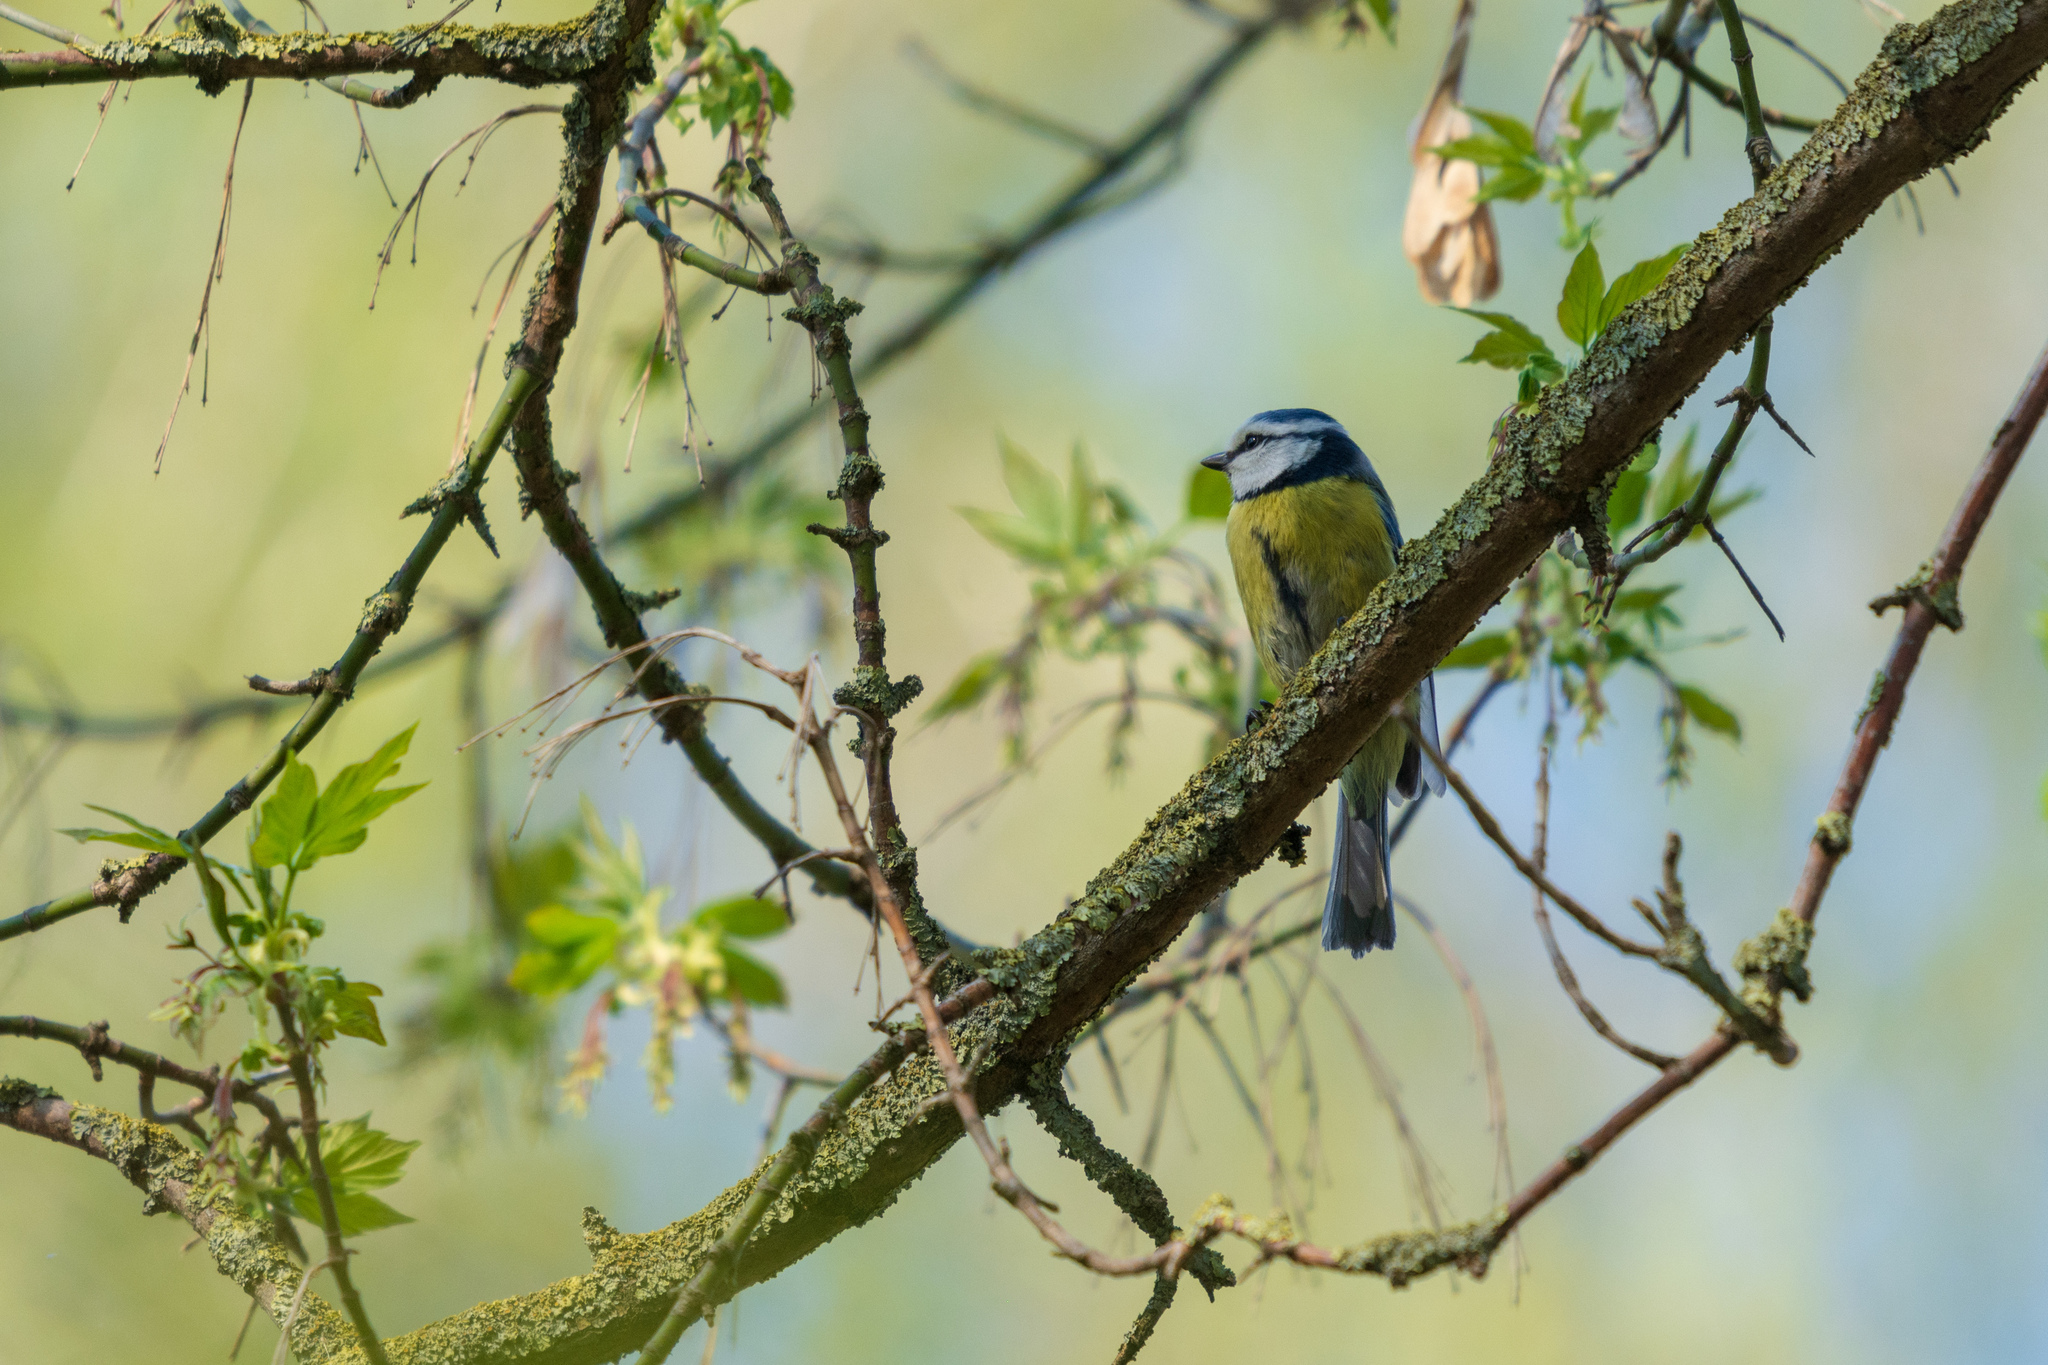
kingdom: Animalia
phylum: Chordata
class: Aves
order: Passeriformes
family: Paridae
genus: Cyanistes
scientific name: Cyanistes caeruleus
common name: Eurasian blue tit
